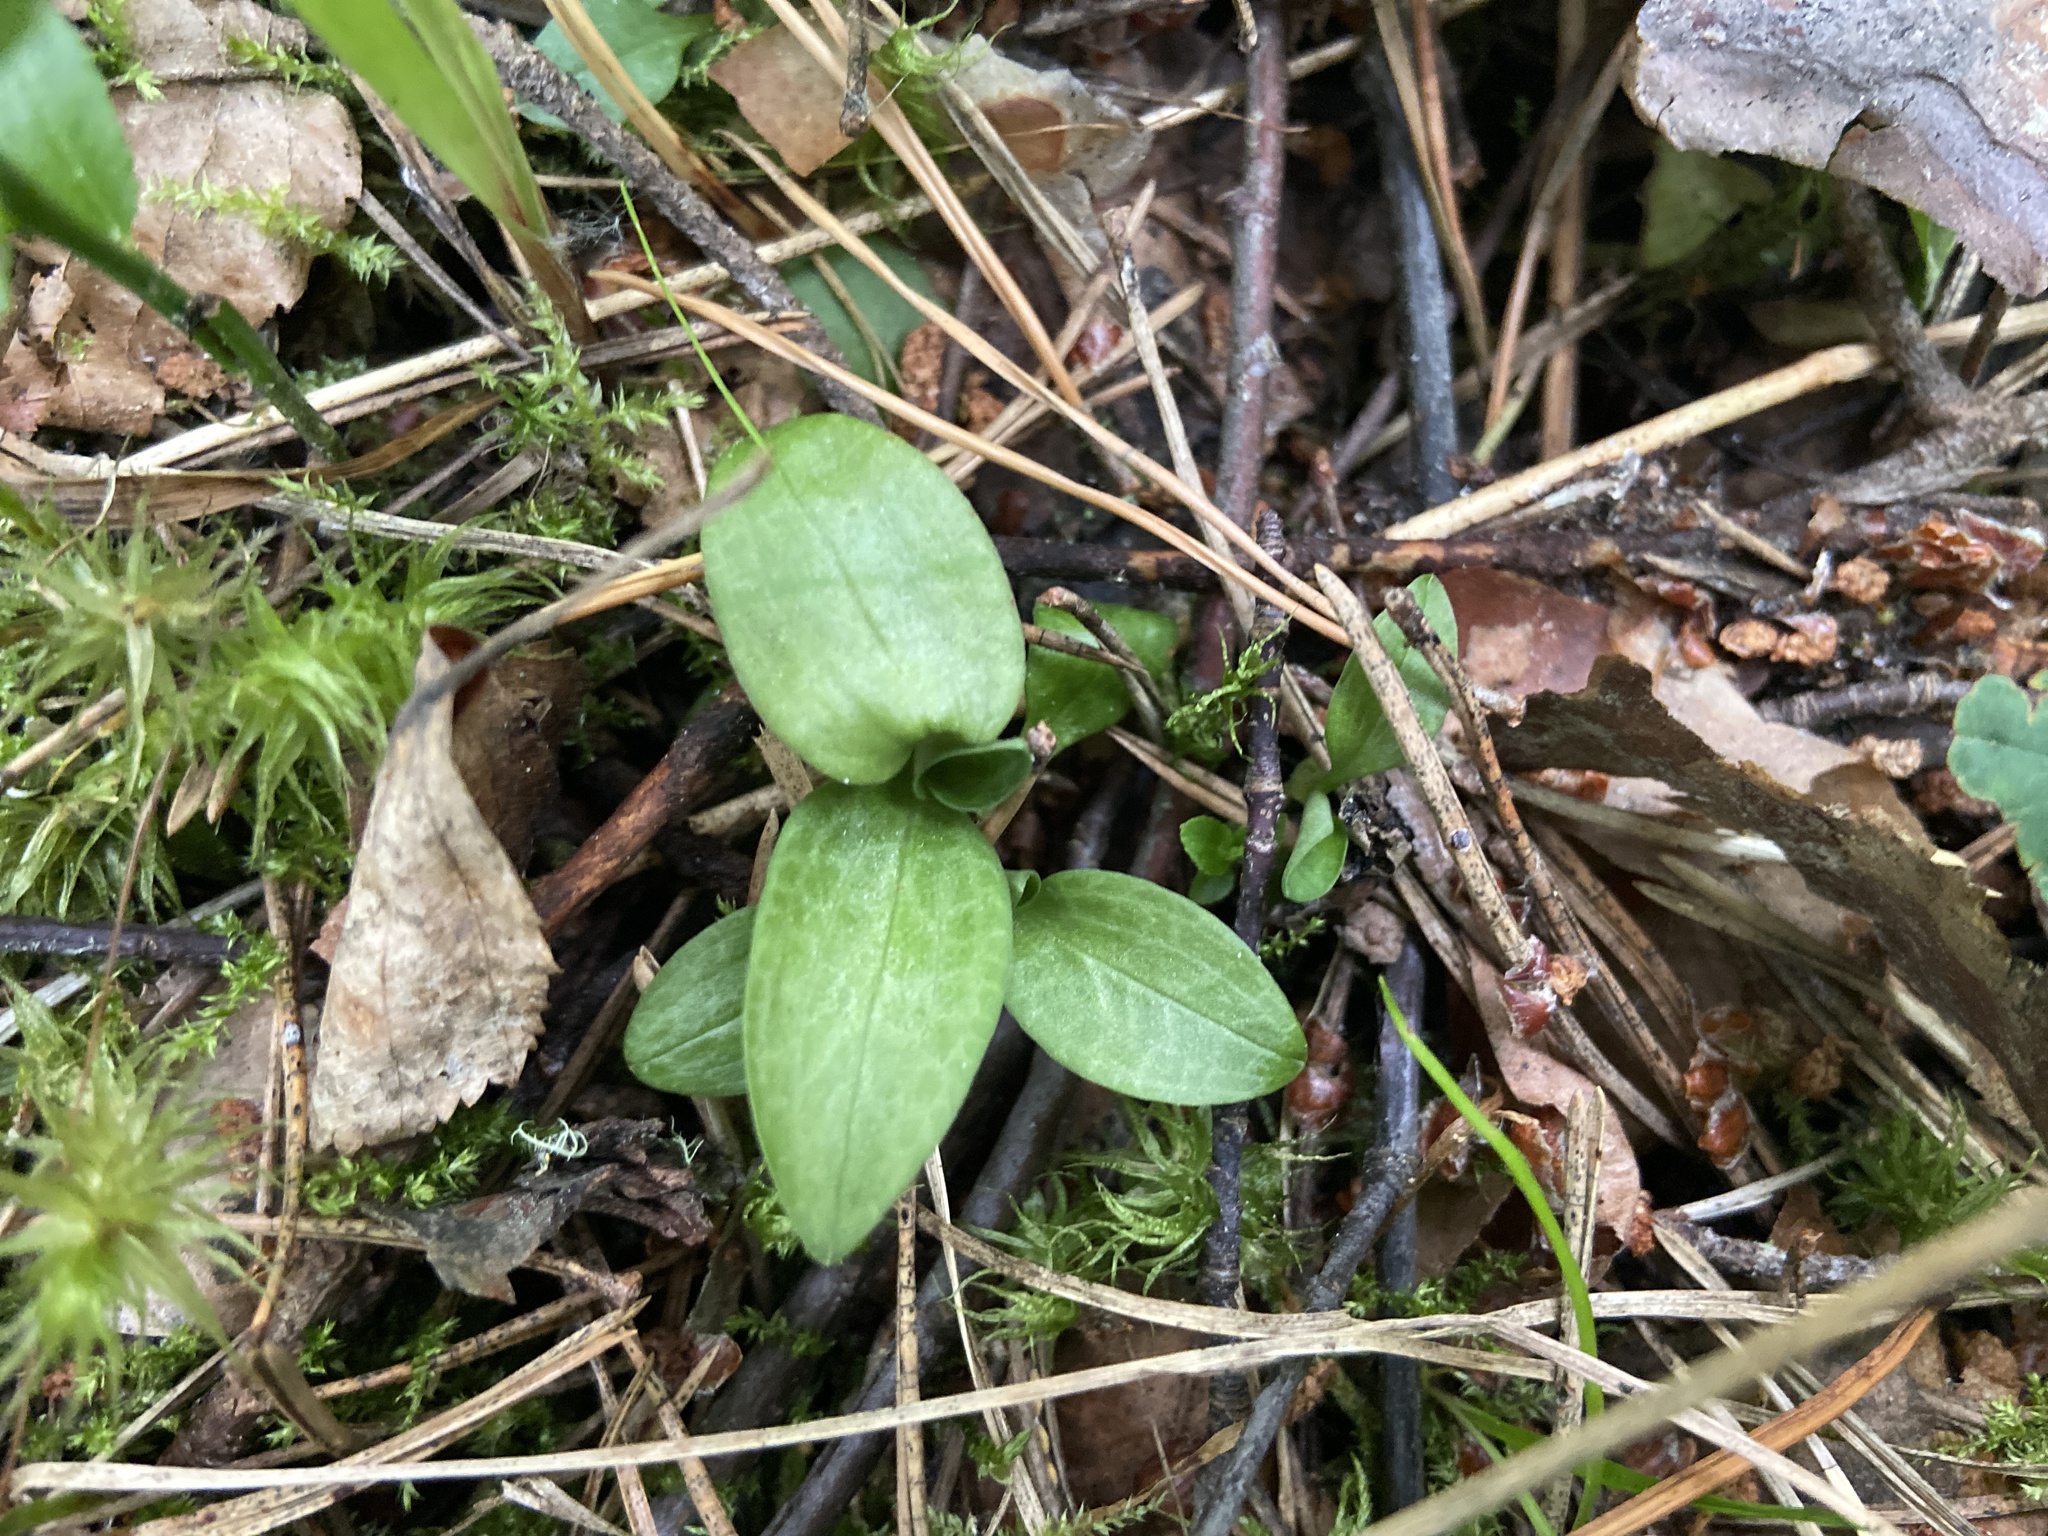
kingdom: Plantae
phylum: Tracheophyta
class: Liliopsida
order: Asparagales
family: Orchidaceae
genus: Goodyera
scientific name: Goodyera repens
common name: Creeping lady's-tresses
